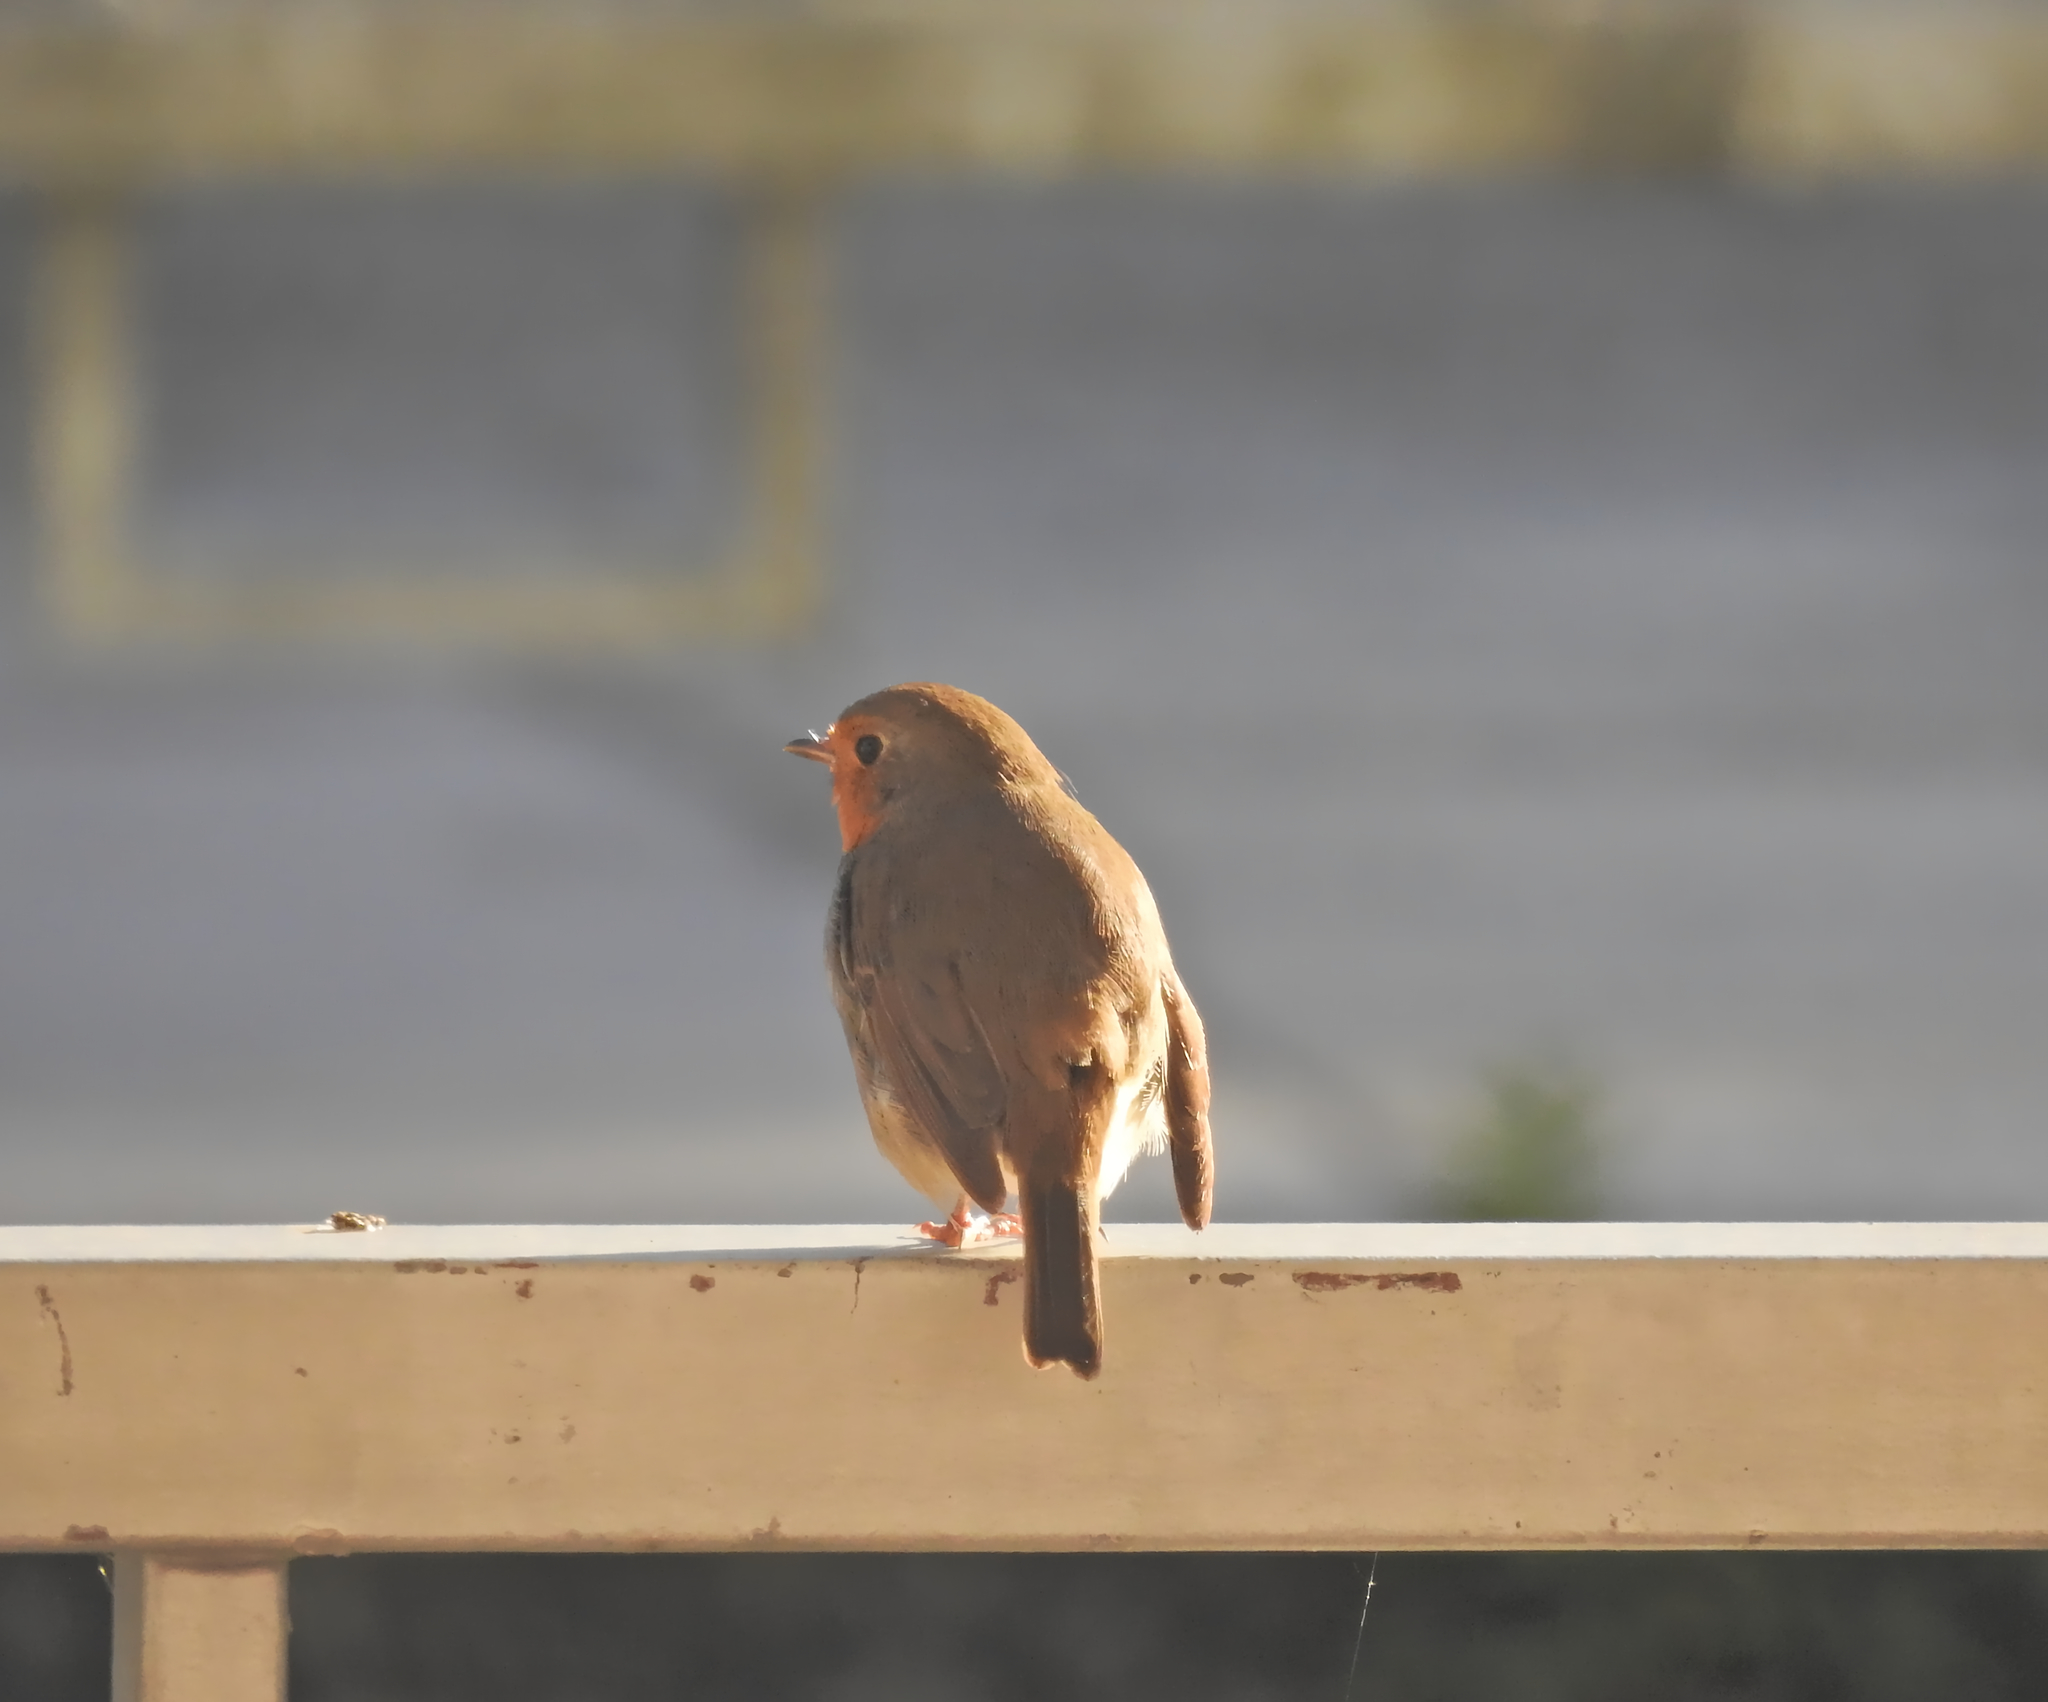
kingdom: Animalia
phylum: Chordata
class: Aves
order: Passeriformes
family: Muscicapidae
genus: Erithacus
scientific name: Erithacus rubecula
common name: European robin
